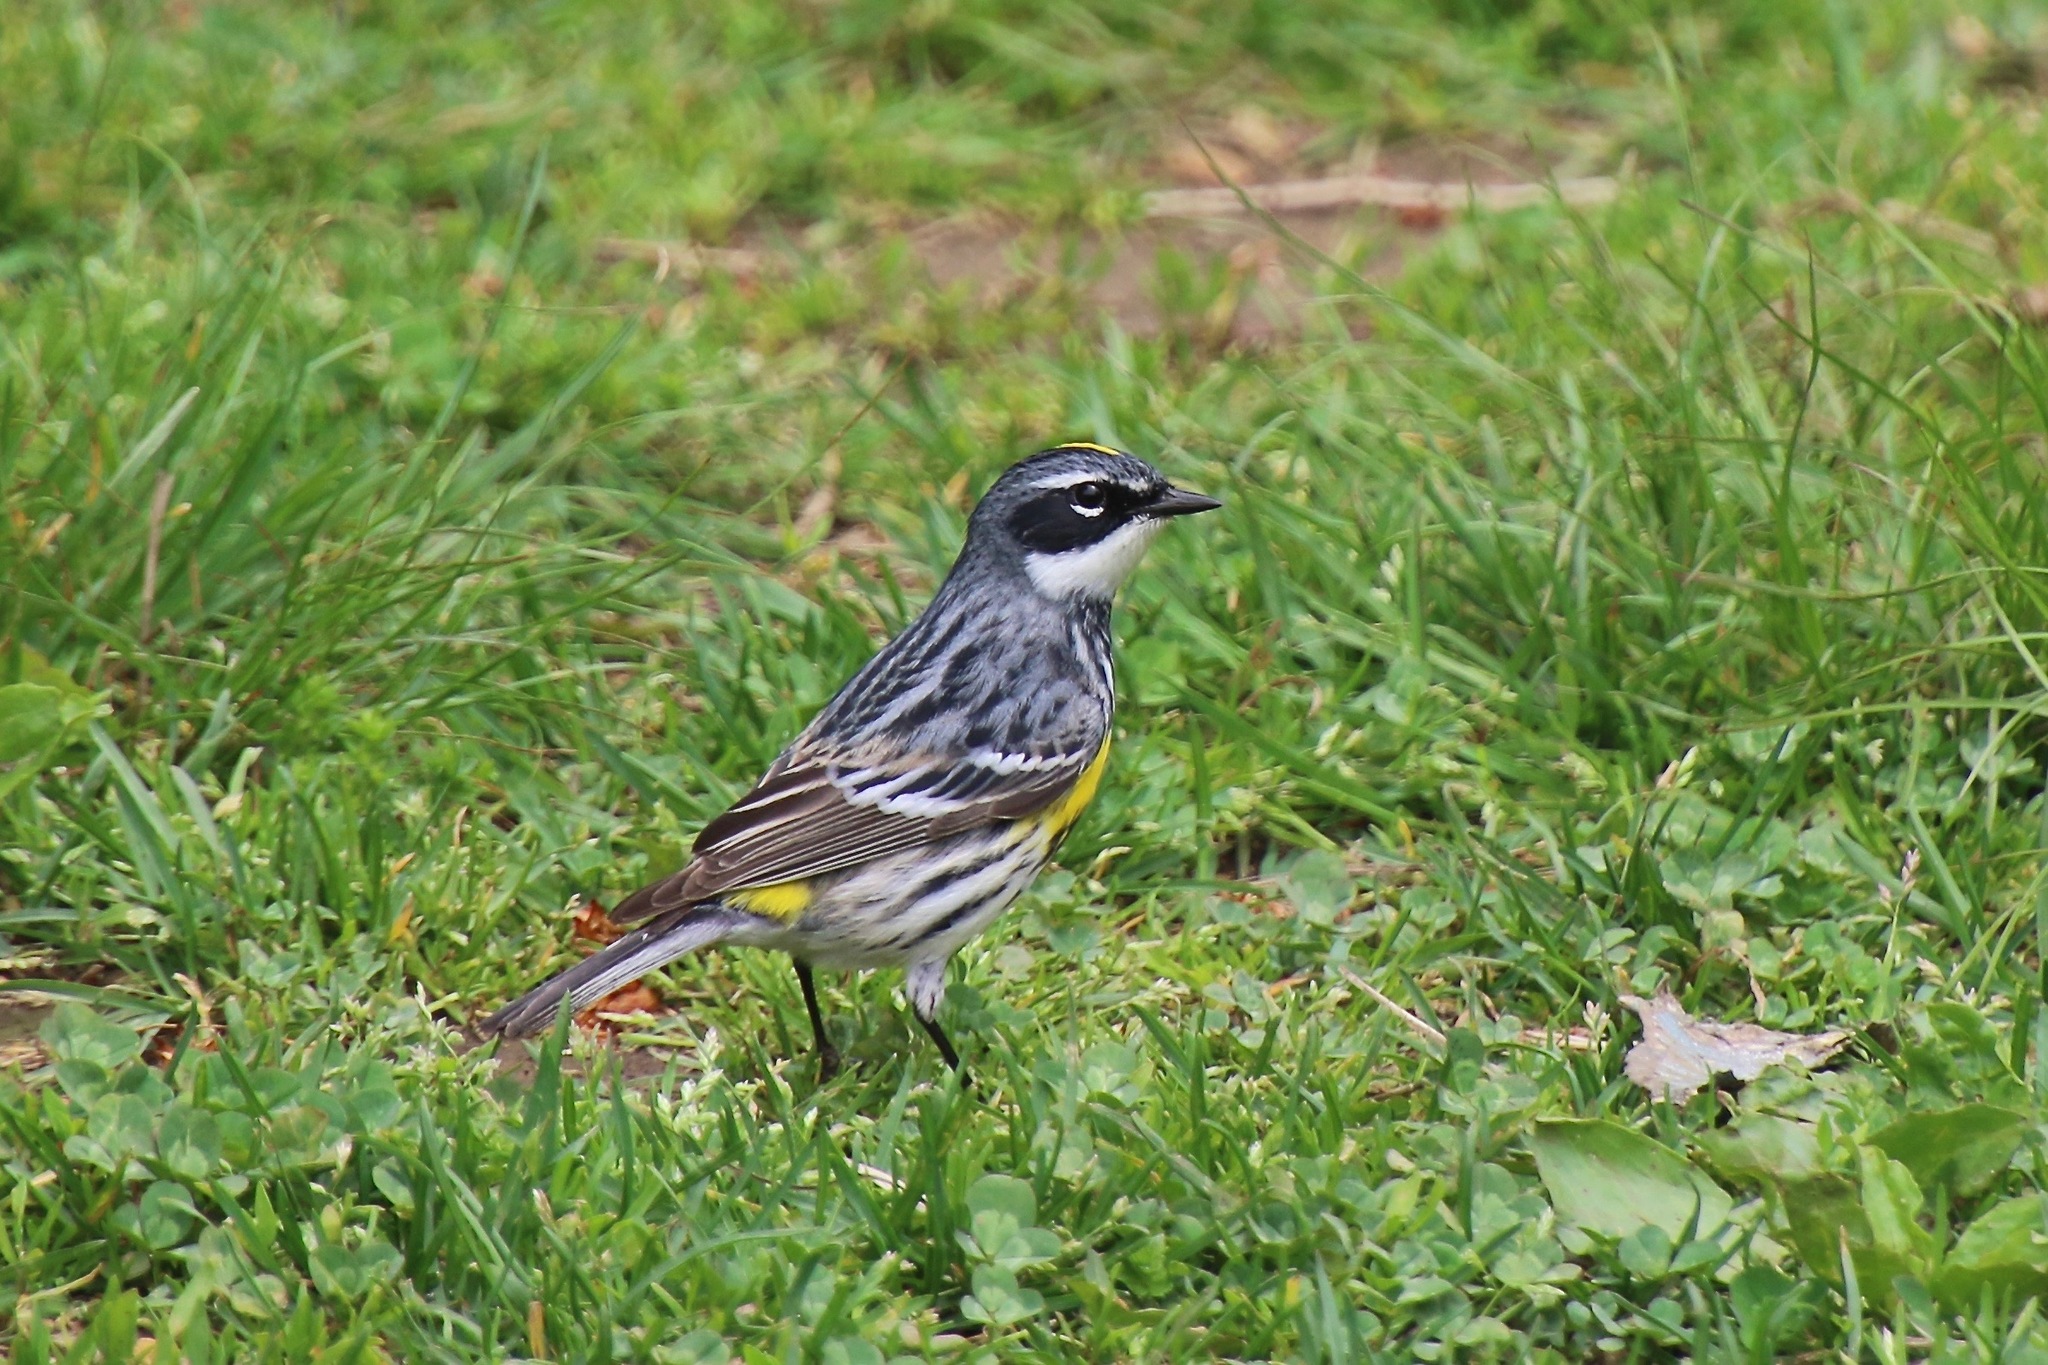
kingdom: Animalia
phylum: Chordata
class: Aves
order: Passeriformes
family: Parulidae
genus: Setophaga
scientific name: Setophaga coronata
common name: Myrtle warbler
